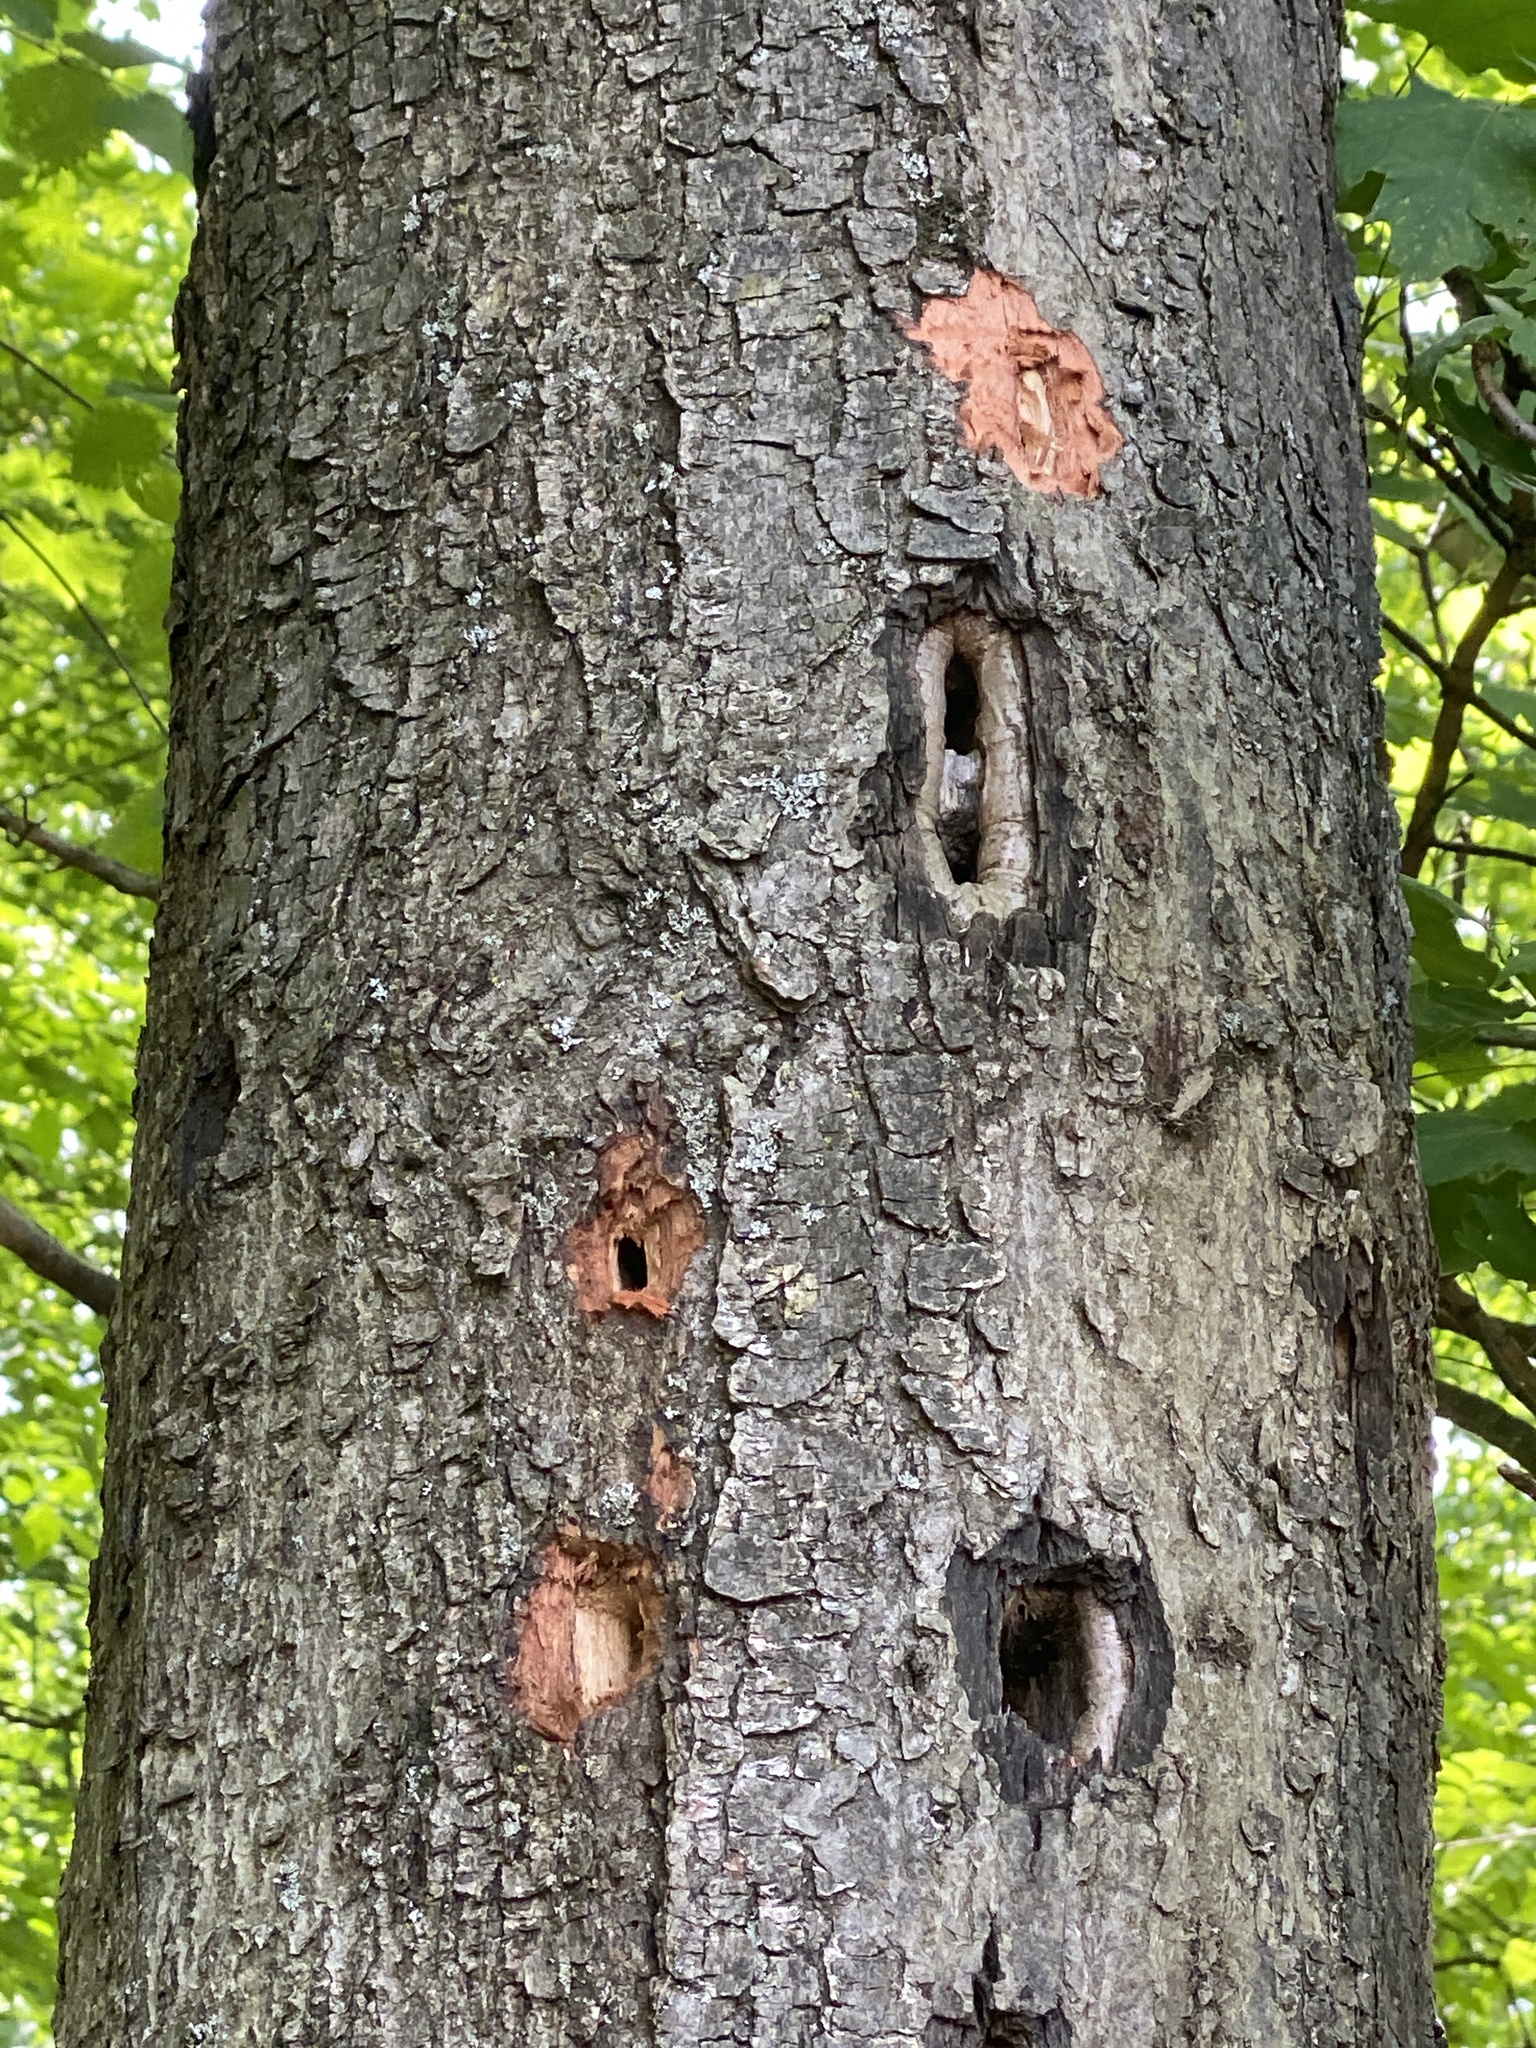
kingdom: Animalia
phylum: Chordata
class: Aves
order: Piciformes
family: Picidae
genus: Dryocopus
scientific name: Dryocopus pileatus
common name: Pileated woodpecker
